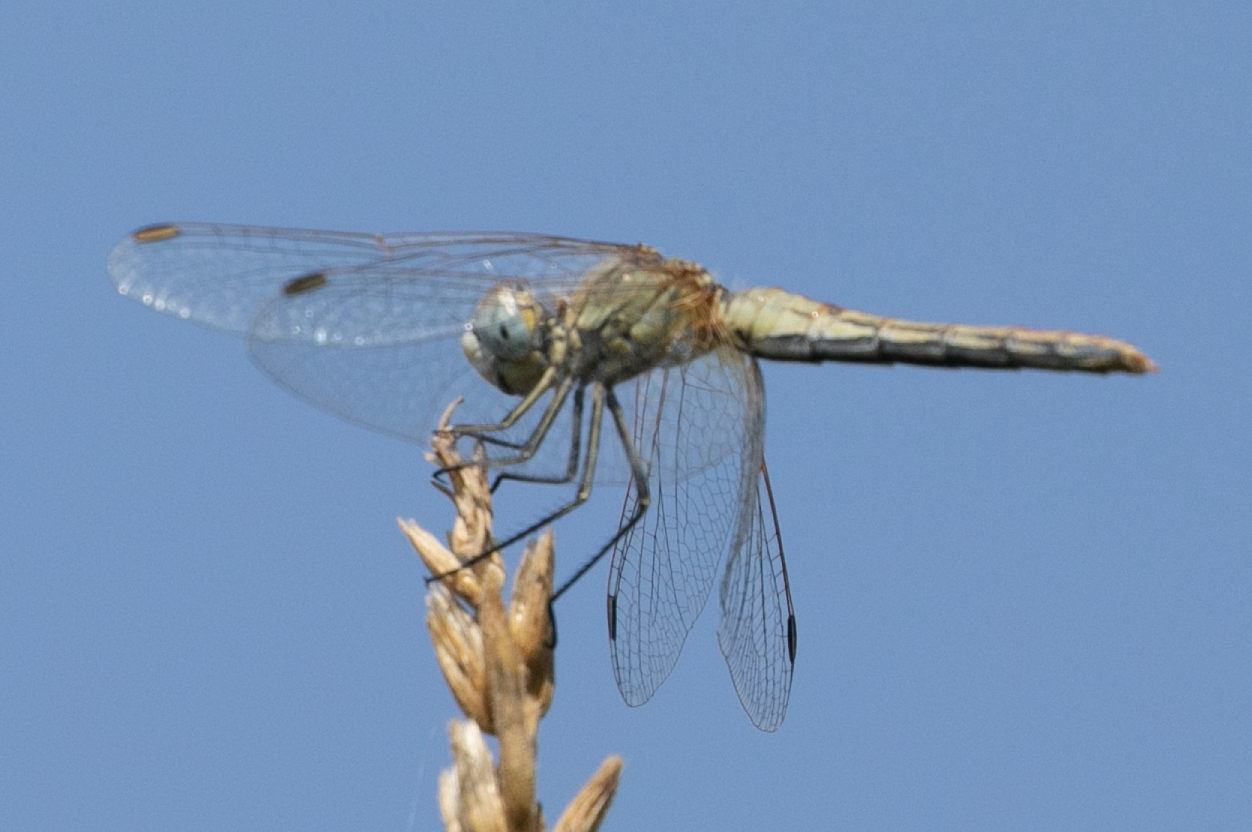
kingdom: Animalia
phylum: Arthropoda
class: Insecta
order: Odonata
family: Libellulidae
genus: Sympetrum
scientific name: Sympetrum fonscolombii
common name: Red-veined darter
